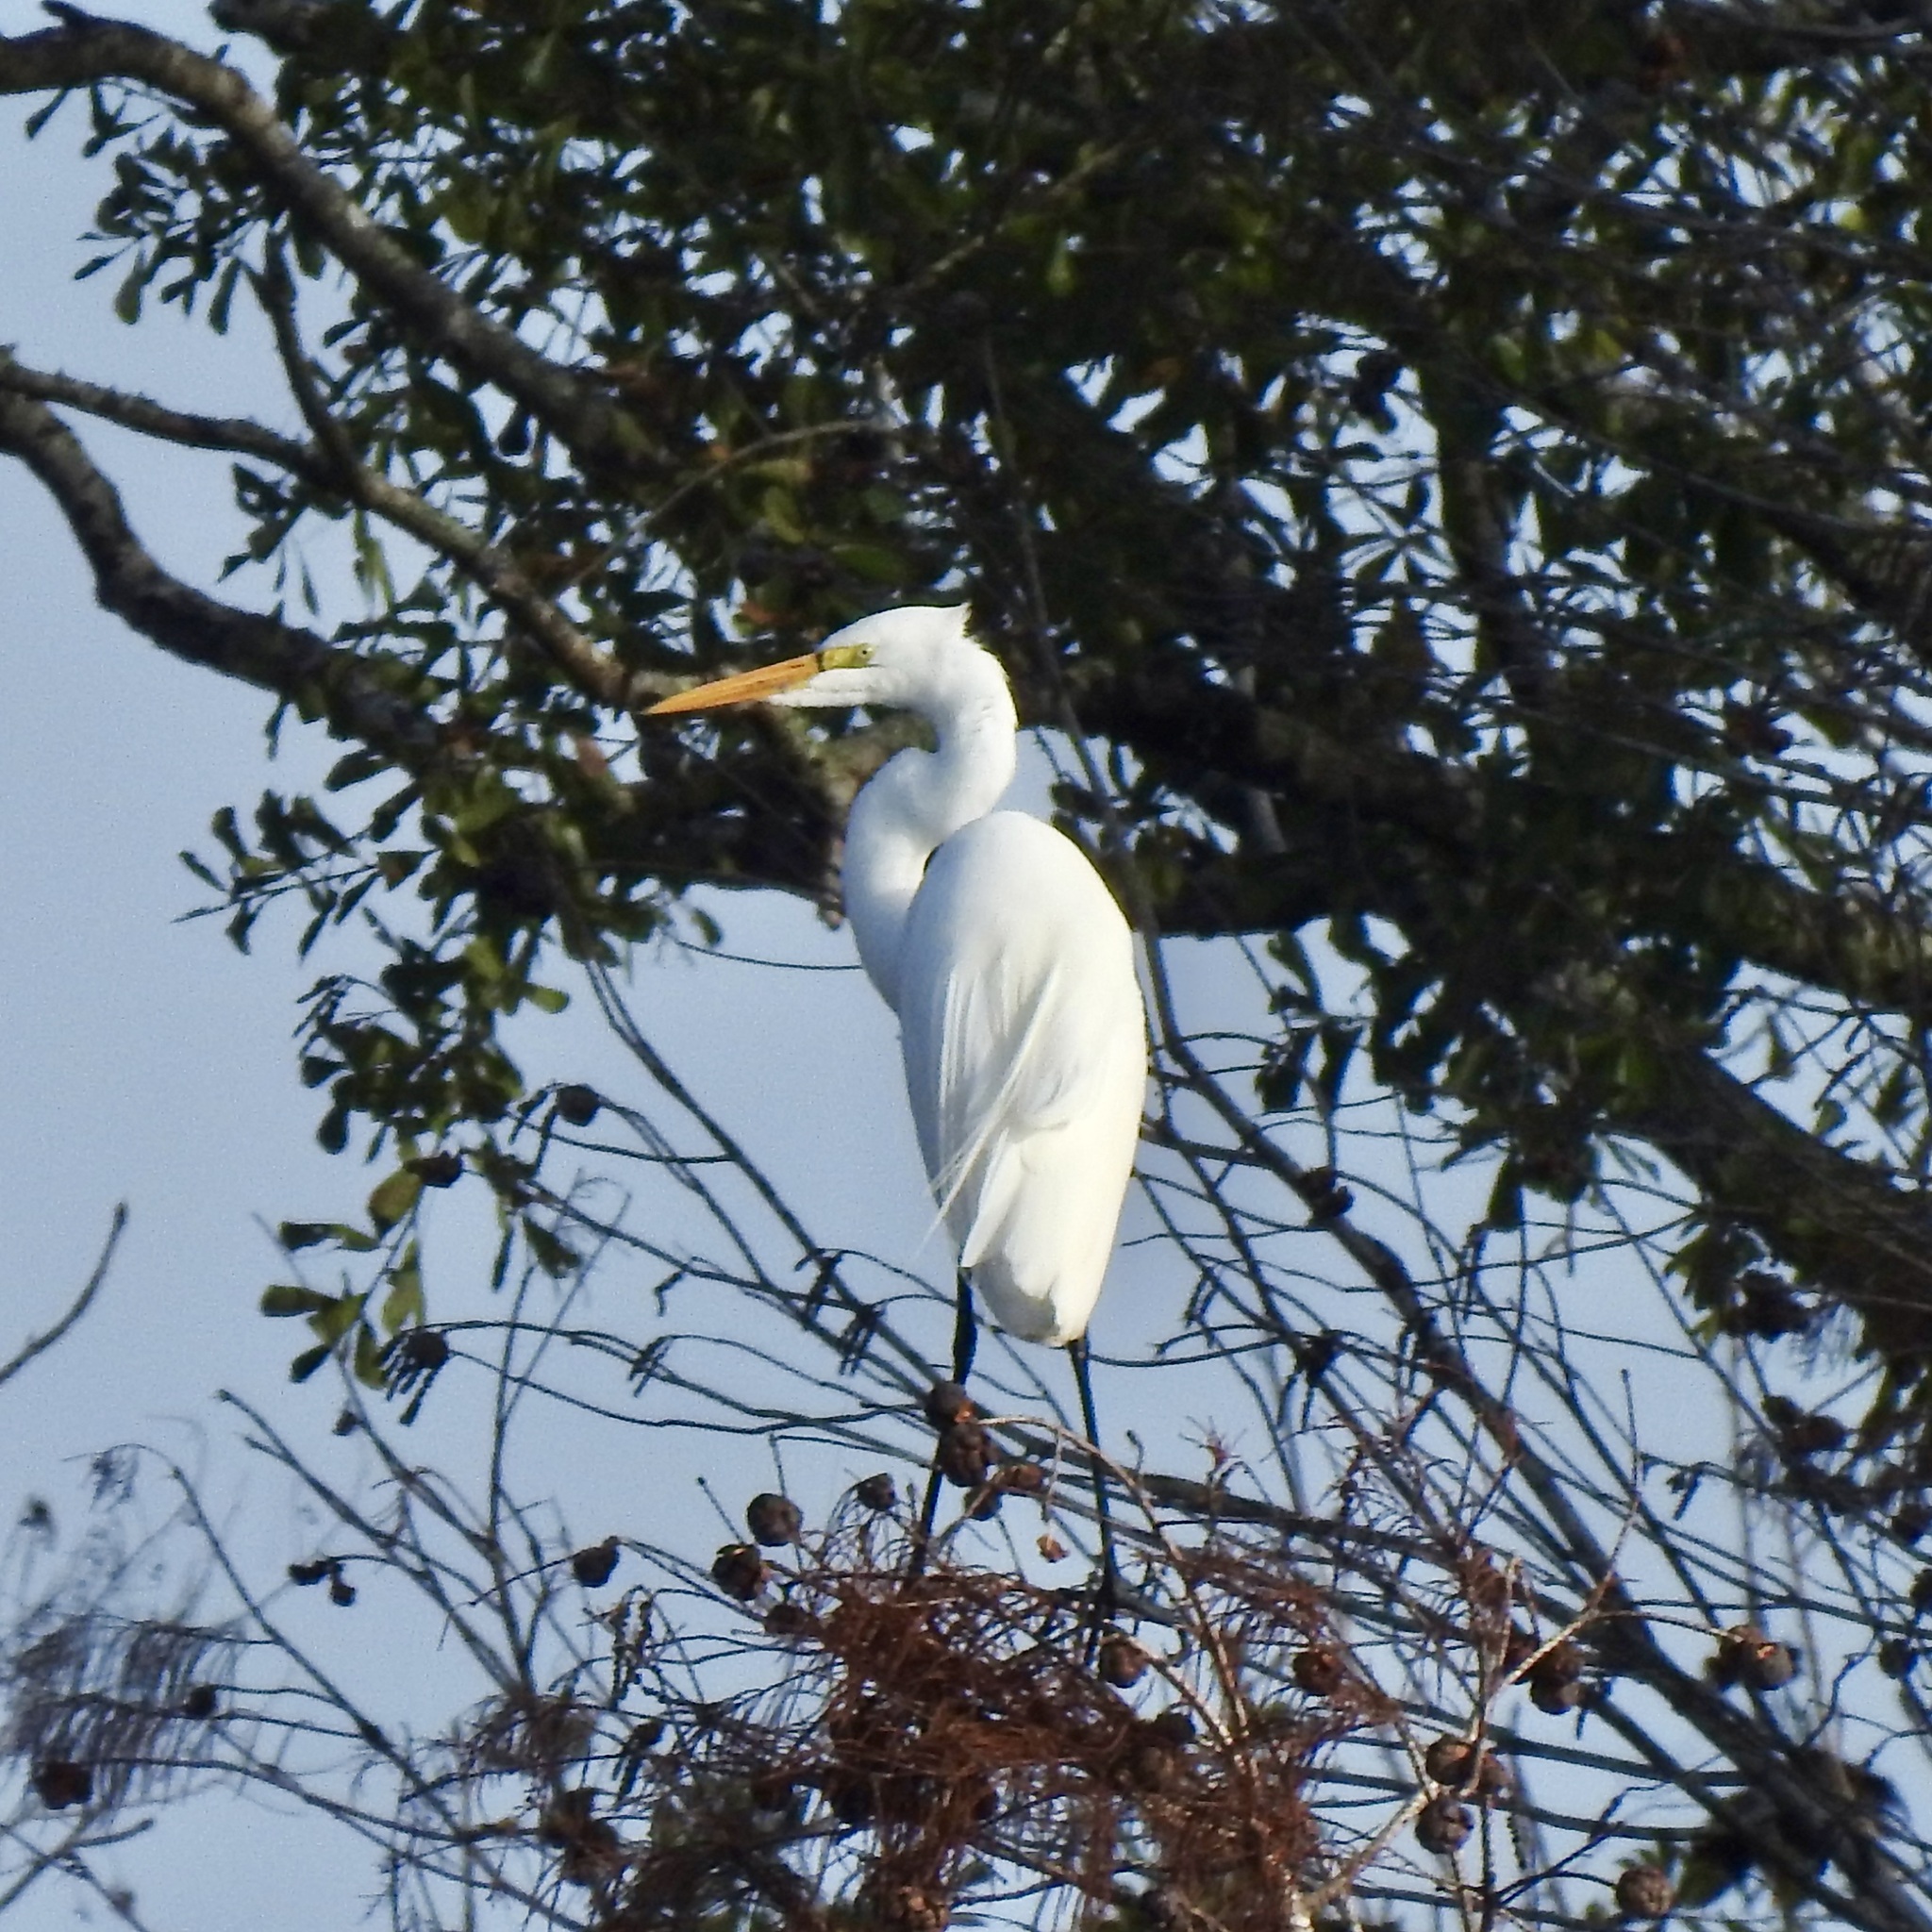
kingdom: Animalia
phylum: Chordata
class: Aves
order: Pelecaniformes
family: Ardeidae
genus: Ardea
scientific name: Ardea alba
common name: Great egret
